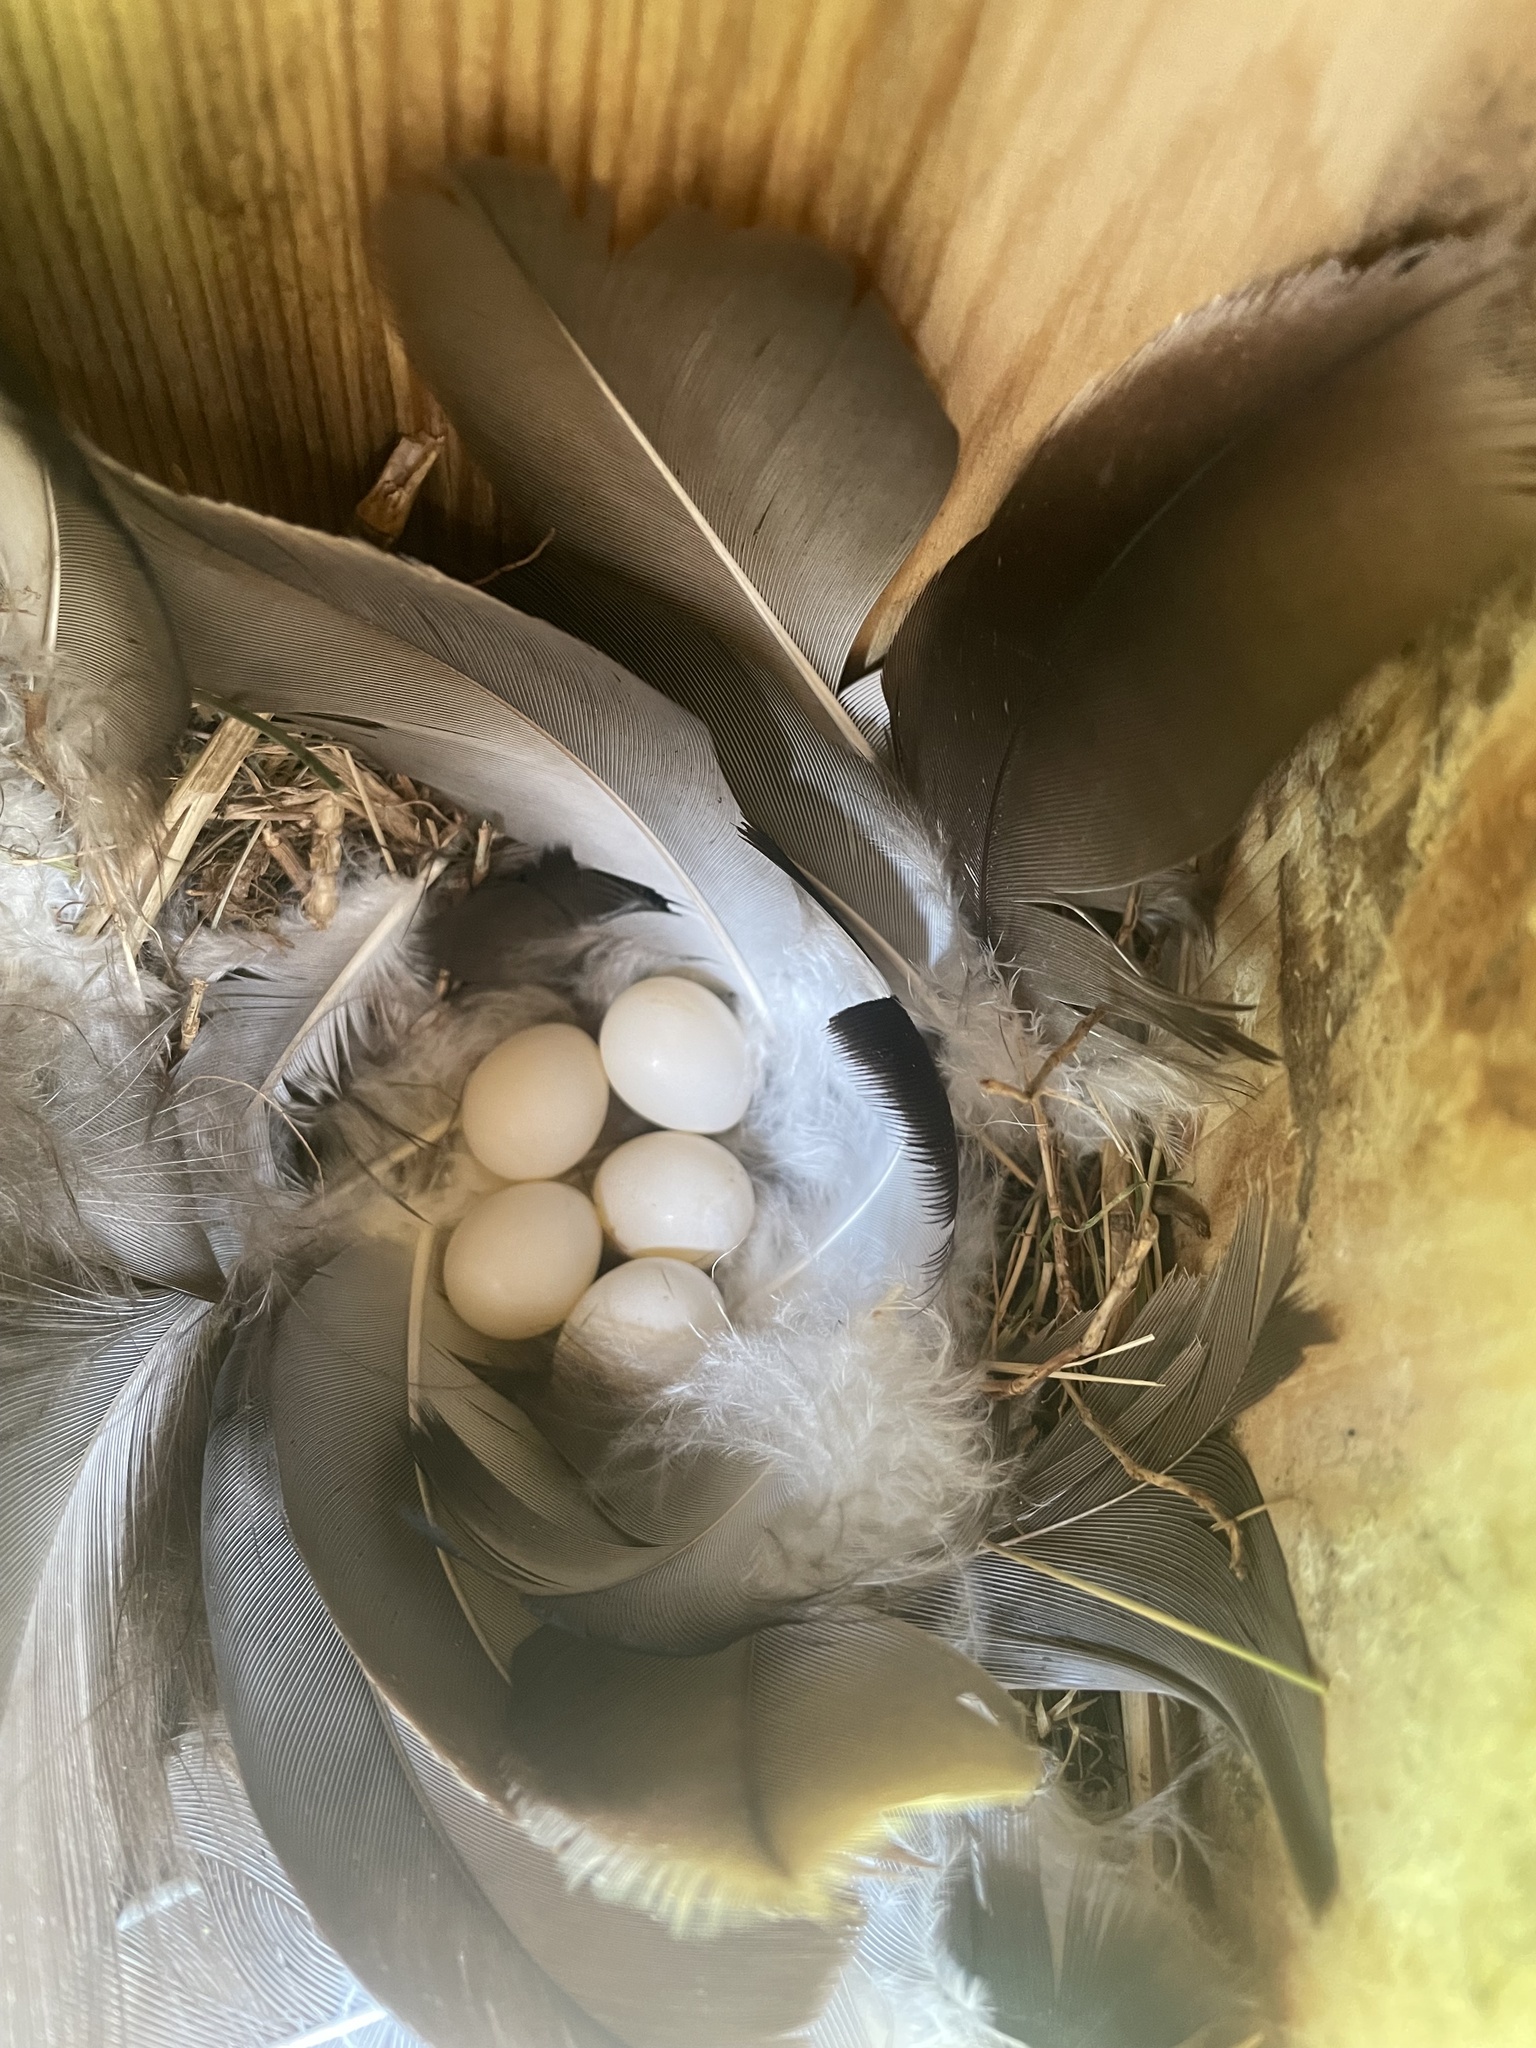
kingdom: Animalia
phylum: Chordata
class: Aves
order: Passeriformes
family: Hirundinidae
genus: Tachycineta
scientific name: Tachycineta bicolor
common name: Tree swallow
